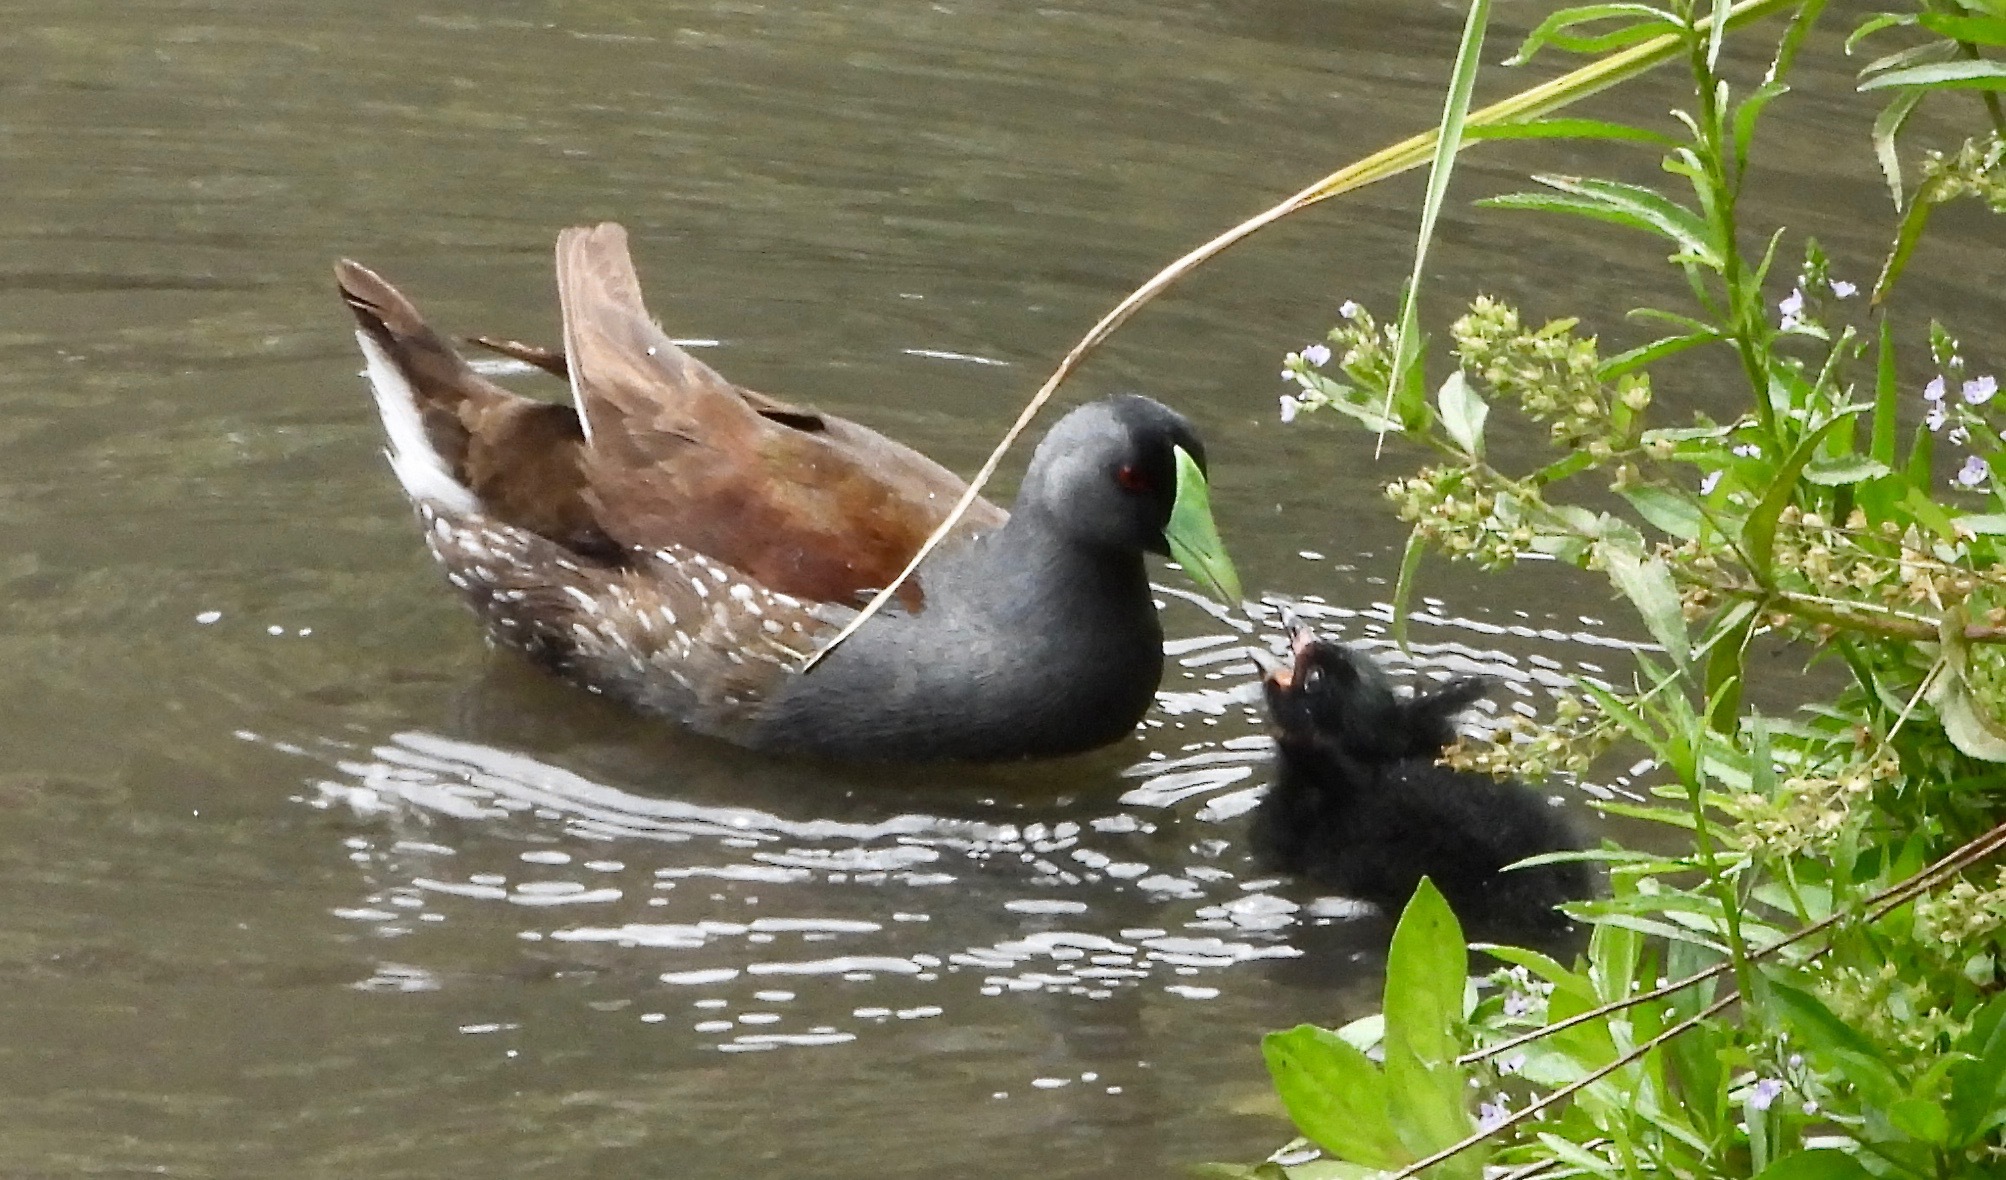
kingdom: Animalia
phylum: Chordata
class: Aves
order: Gruiformes
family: Rallidae
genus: Gallinula
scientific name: Gallinula melanops
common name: Spot-flanked gallinule
